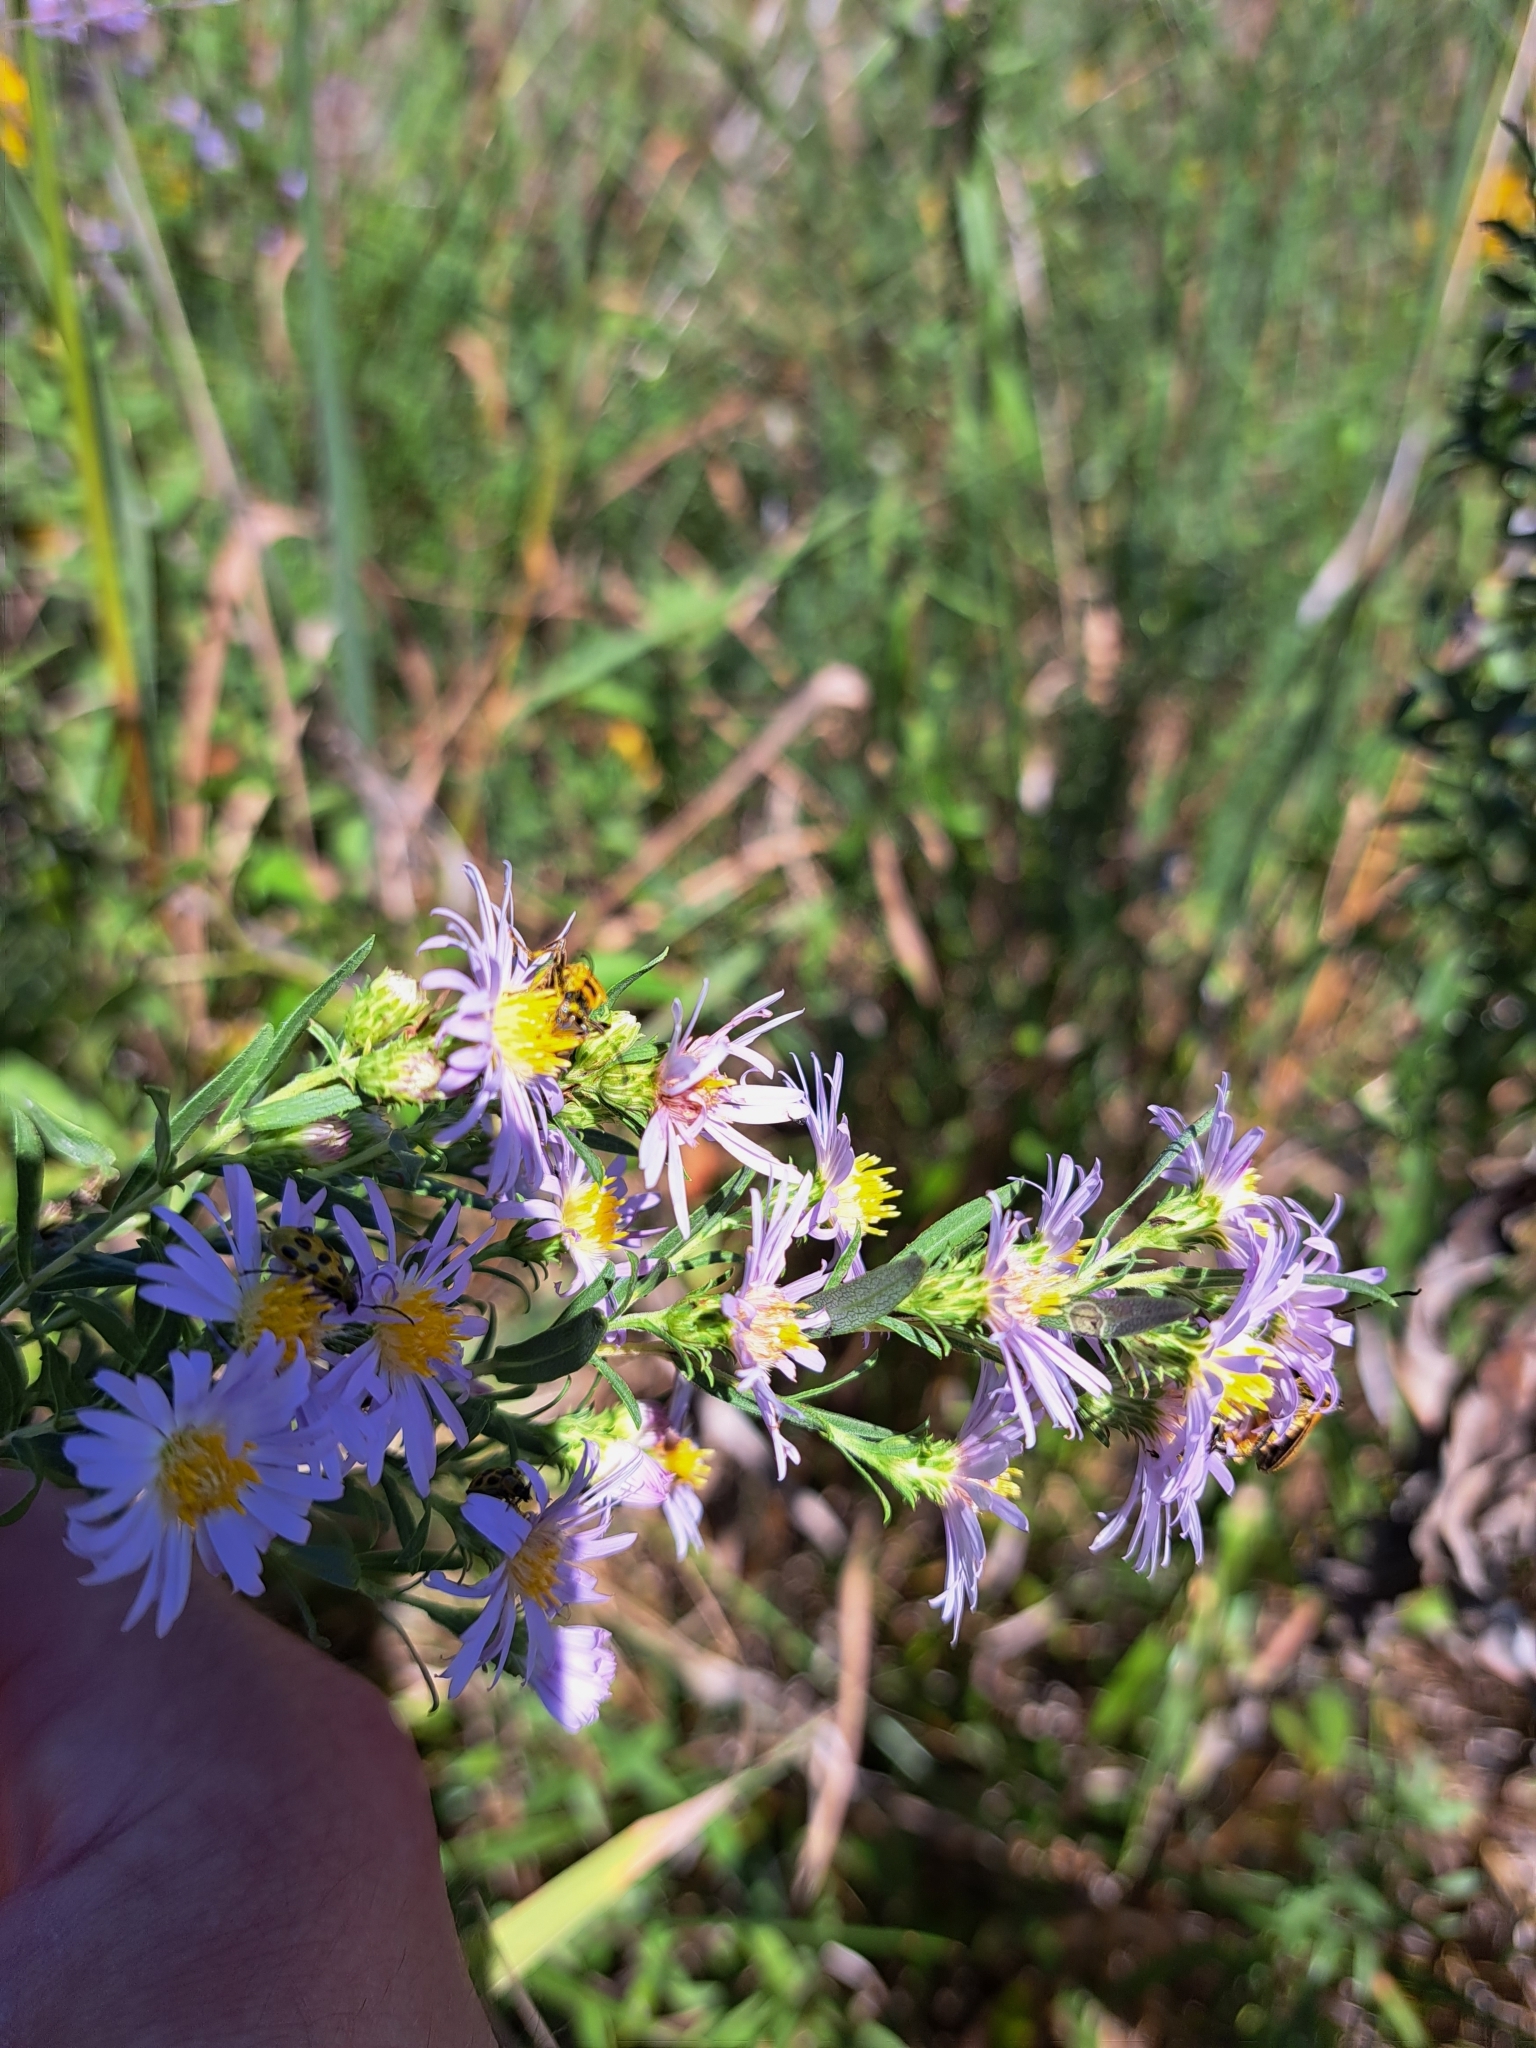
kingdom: Plantae
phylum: Tracheophyta
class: Magnoliopsida
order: Asterales
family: Asteraceae
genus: Symphyotrichum
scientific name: Symphyotrichum praealtum
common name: Willow aster
